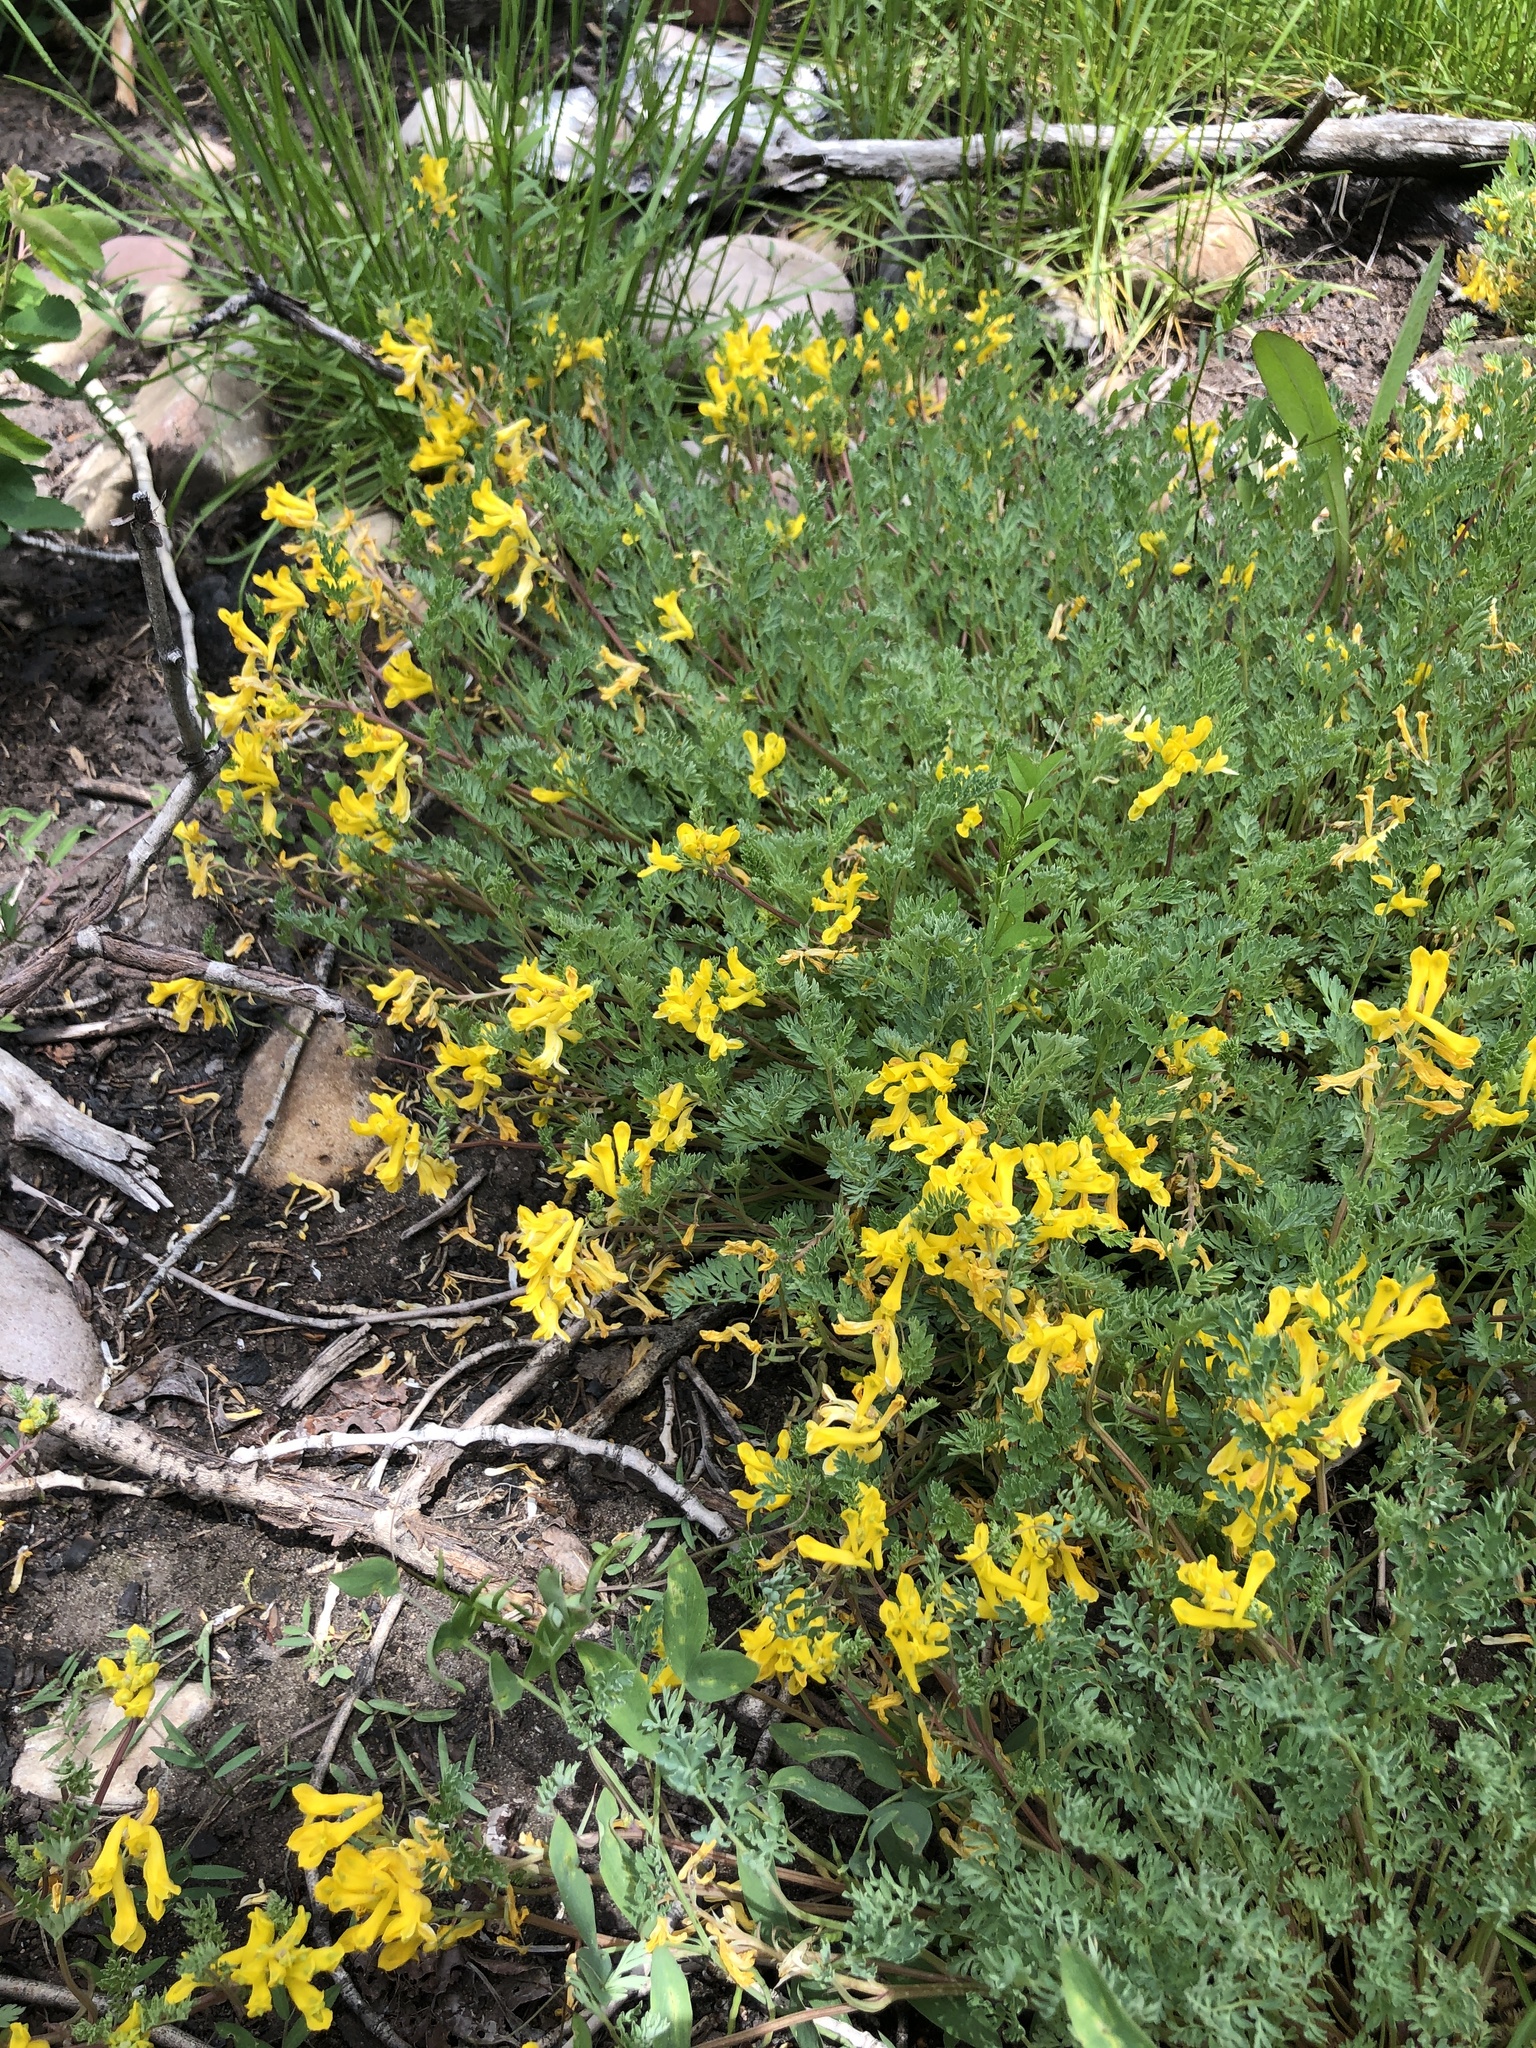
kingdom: Plantae
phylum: Tracheophyta
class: Magnoliopsida
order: Ranunculales
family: Papaveraceae
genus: Corydalis
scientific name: Corydalis aurea
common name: Golden corydalis
